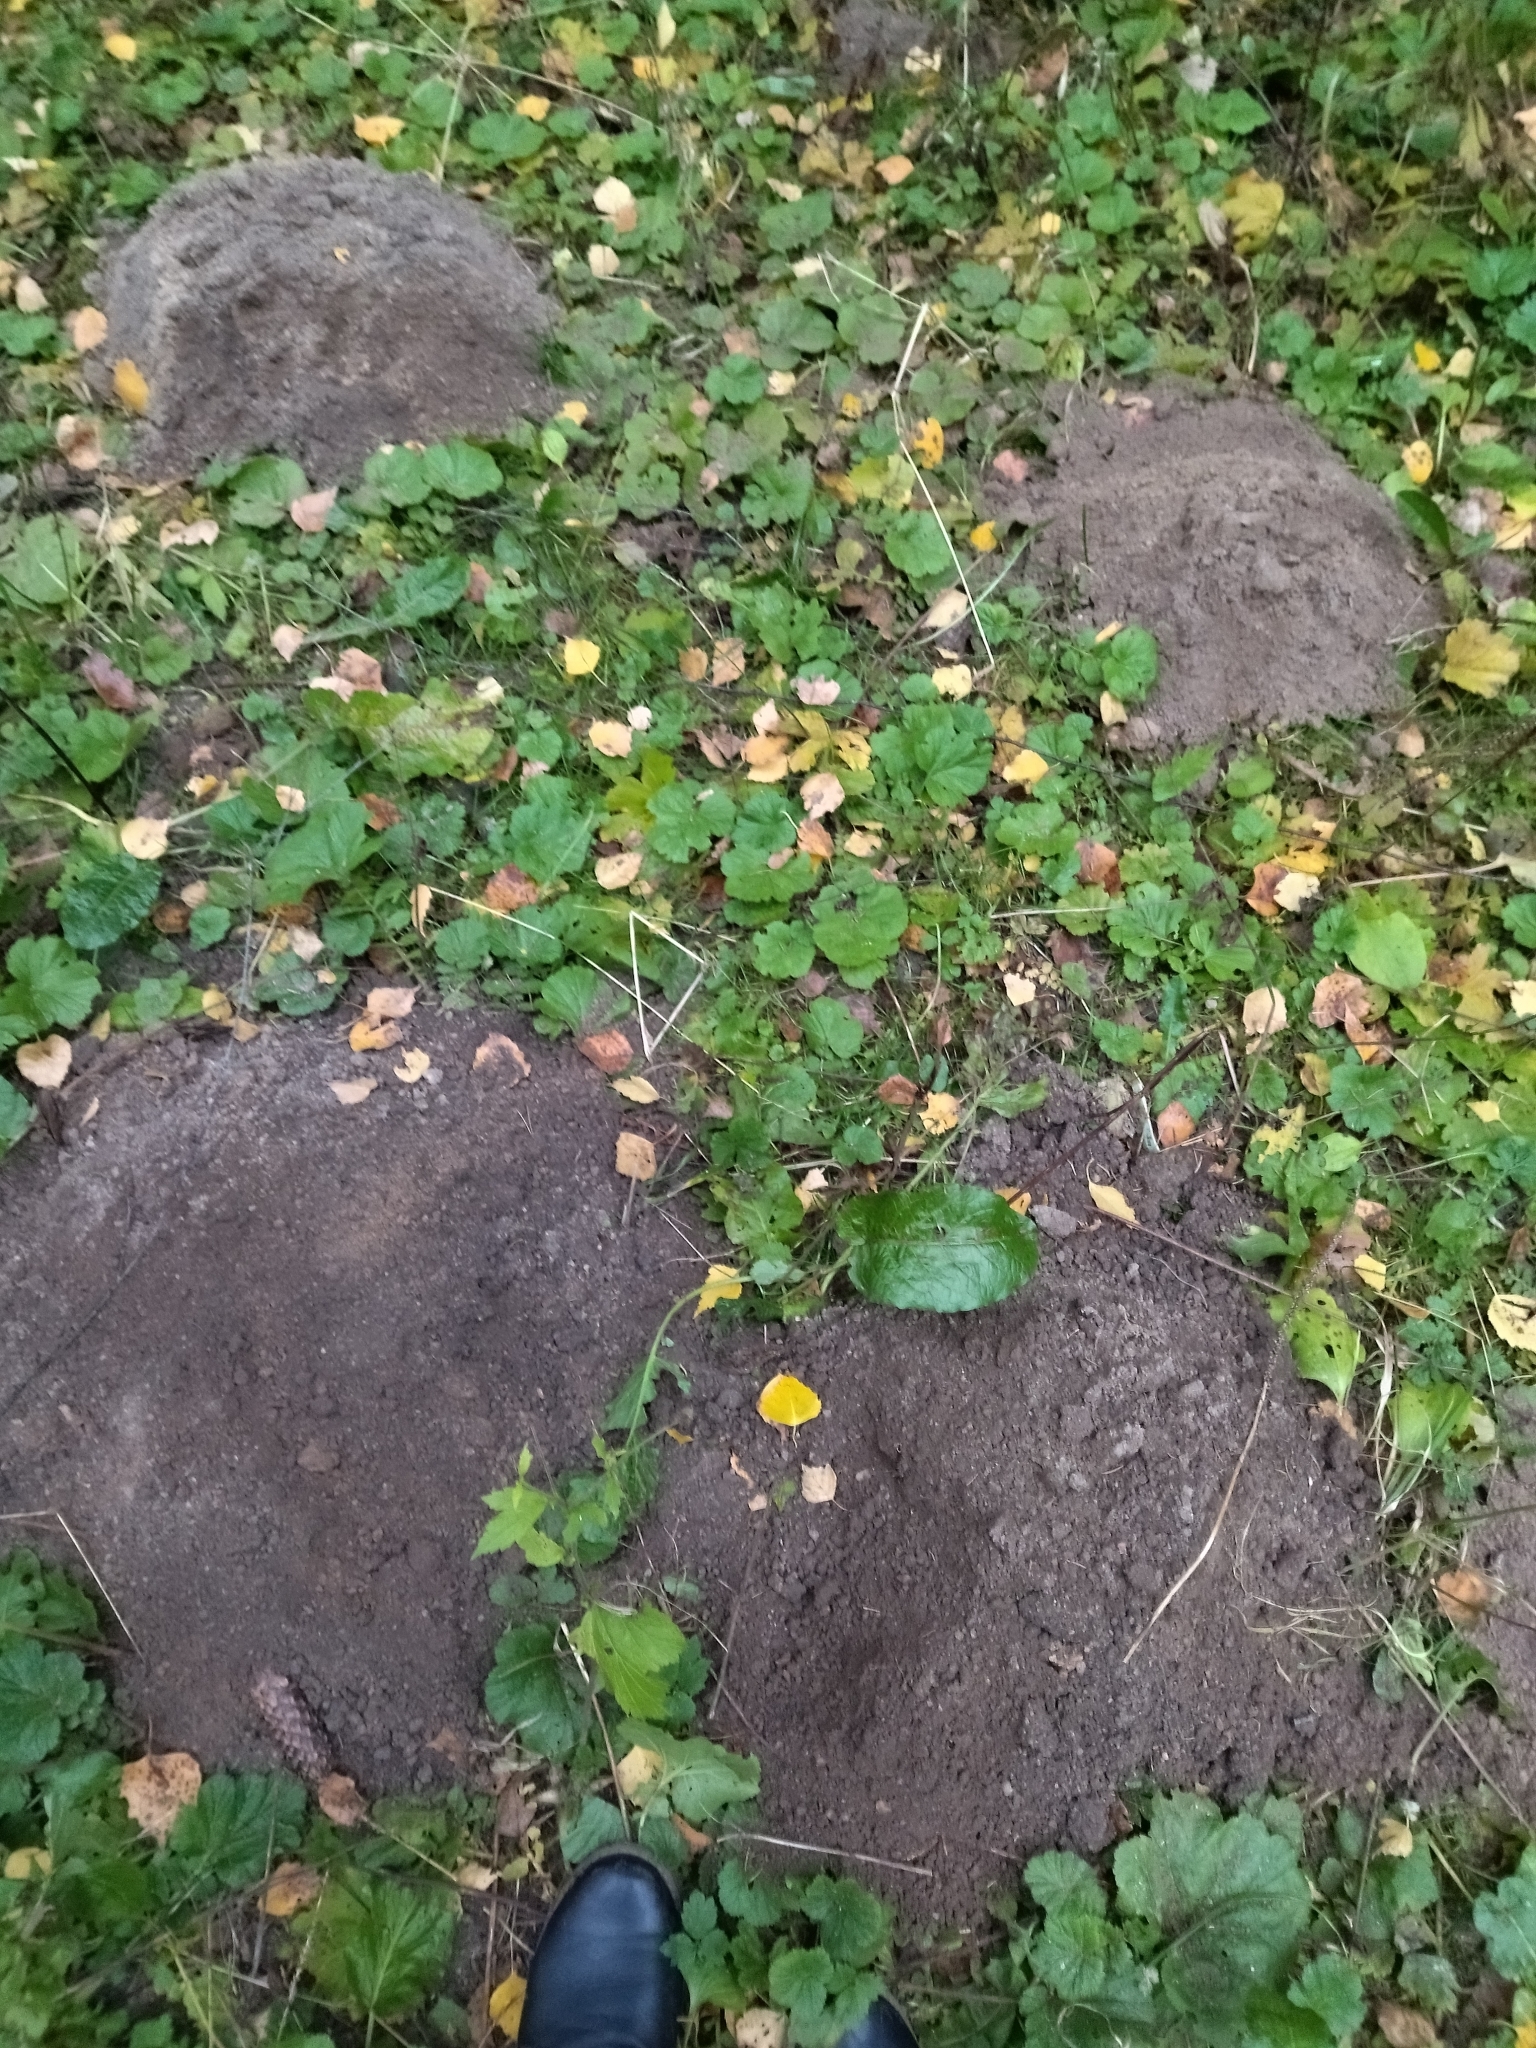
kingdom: Animalia
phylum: Chordata
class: Mammalia
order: Soricomorpha
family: Talpidae
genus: Talpa
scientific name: Talpa europaea
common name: European mole
